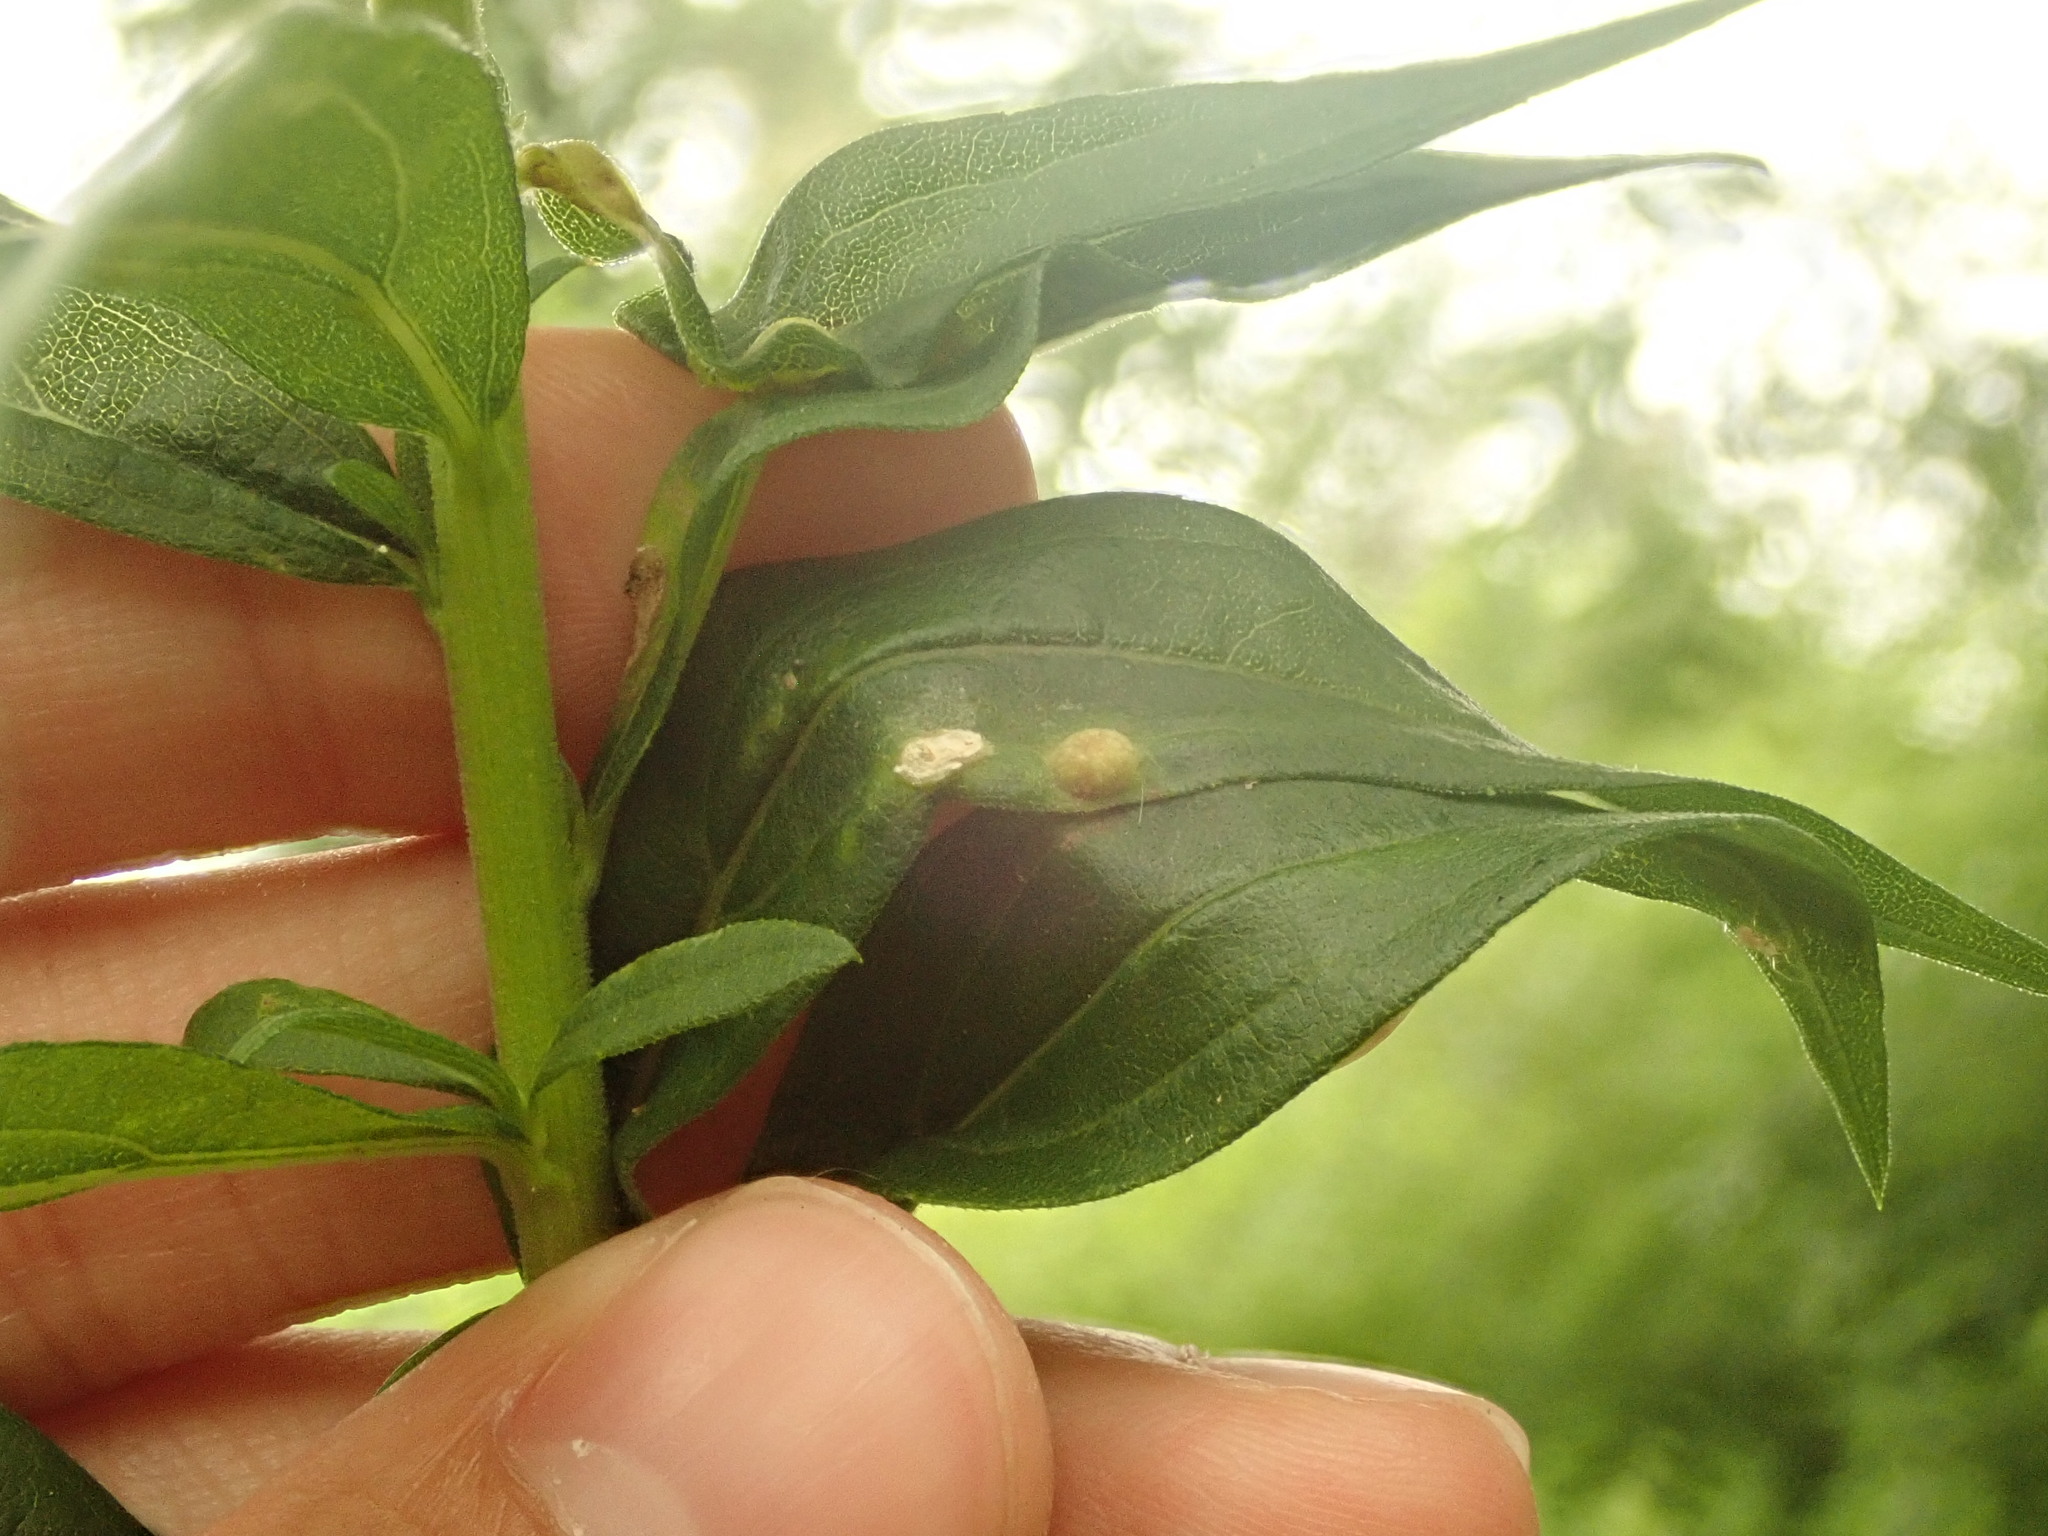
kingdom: Animalia
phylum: Arthropoda
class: Insecta
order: Diptera
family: Cecidomyiidae
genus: Asphondylia
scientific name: Asphondylia solidaginis
